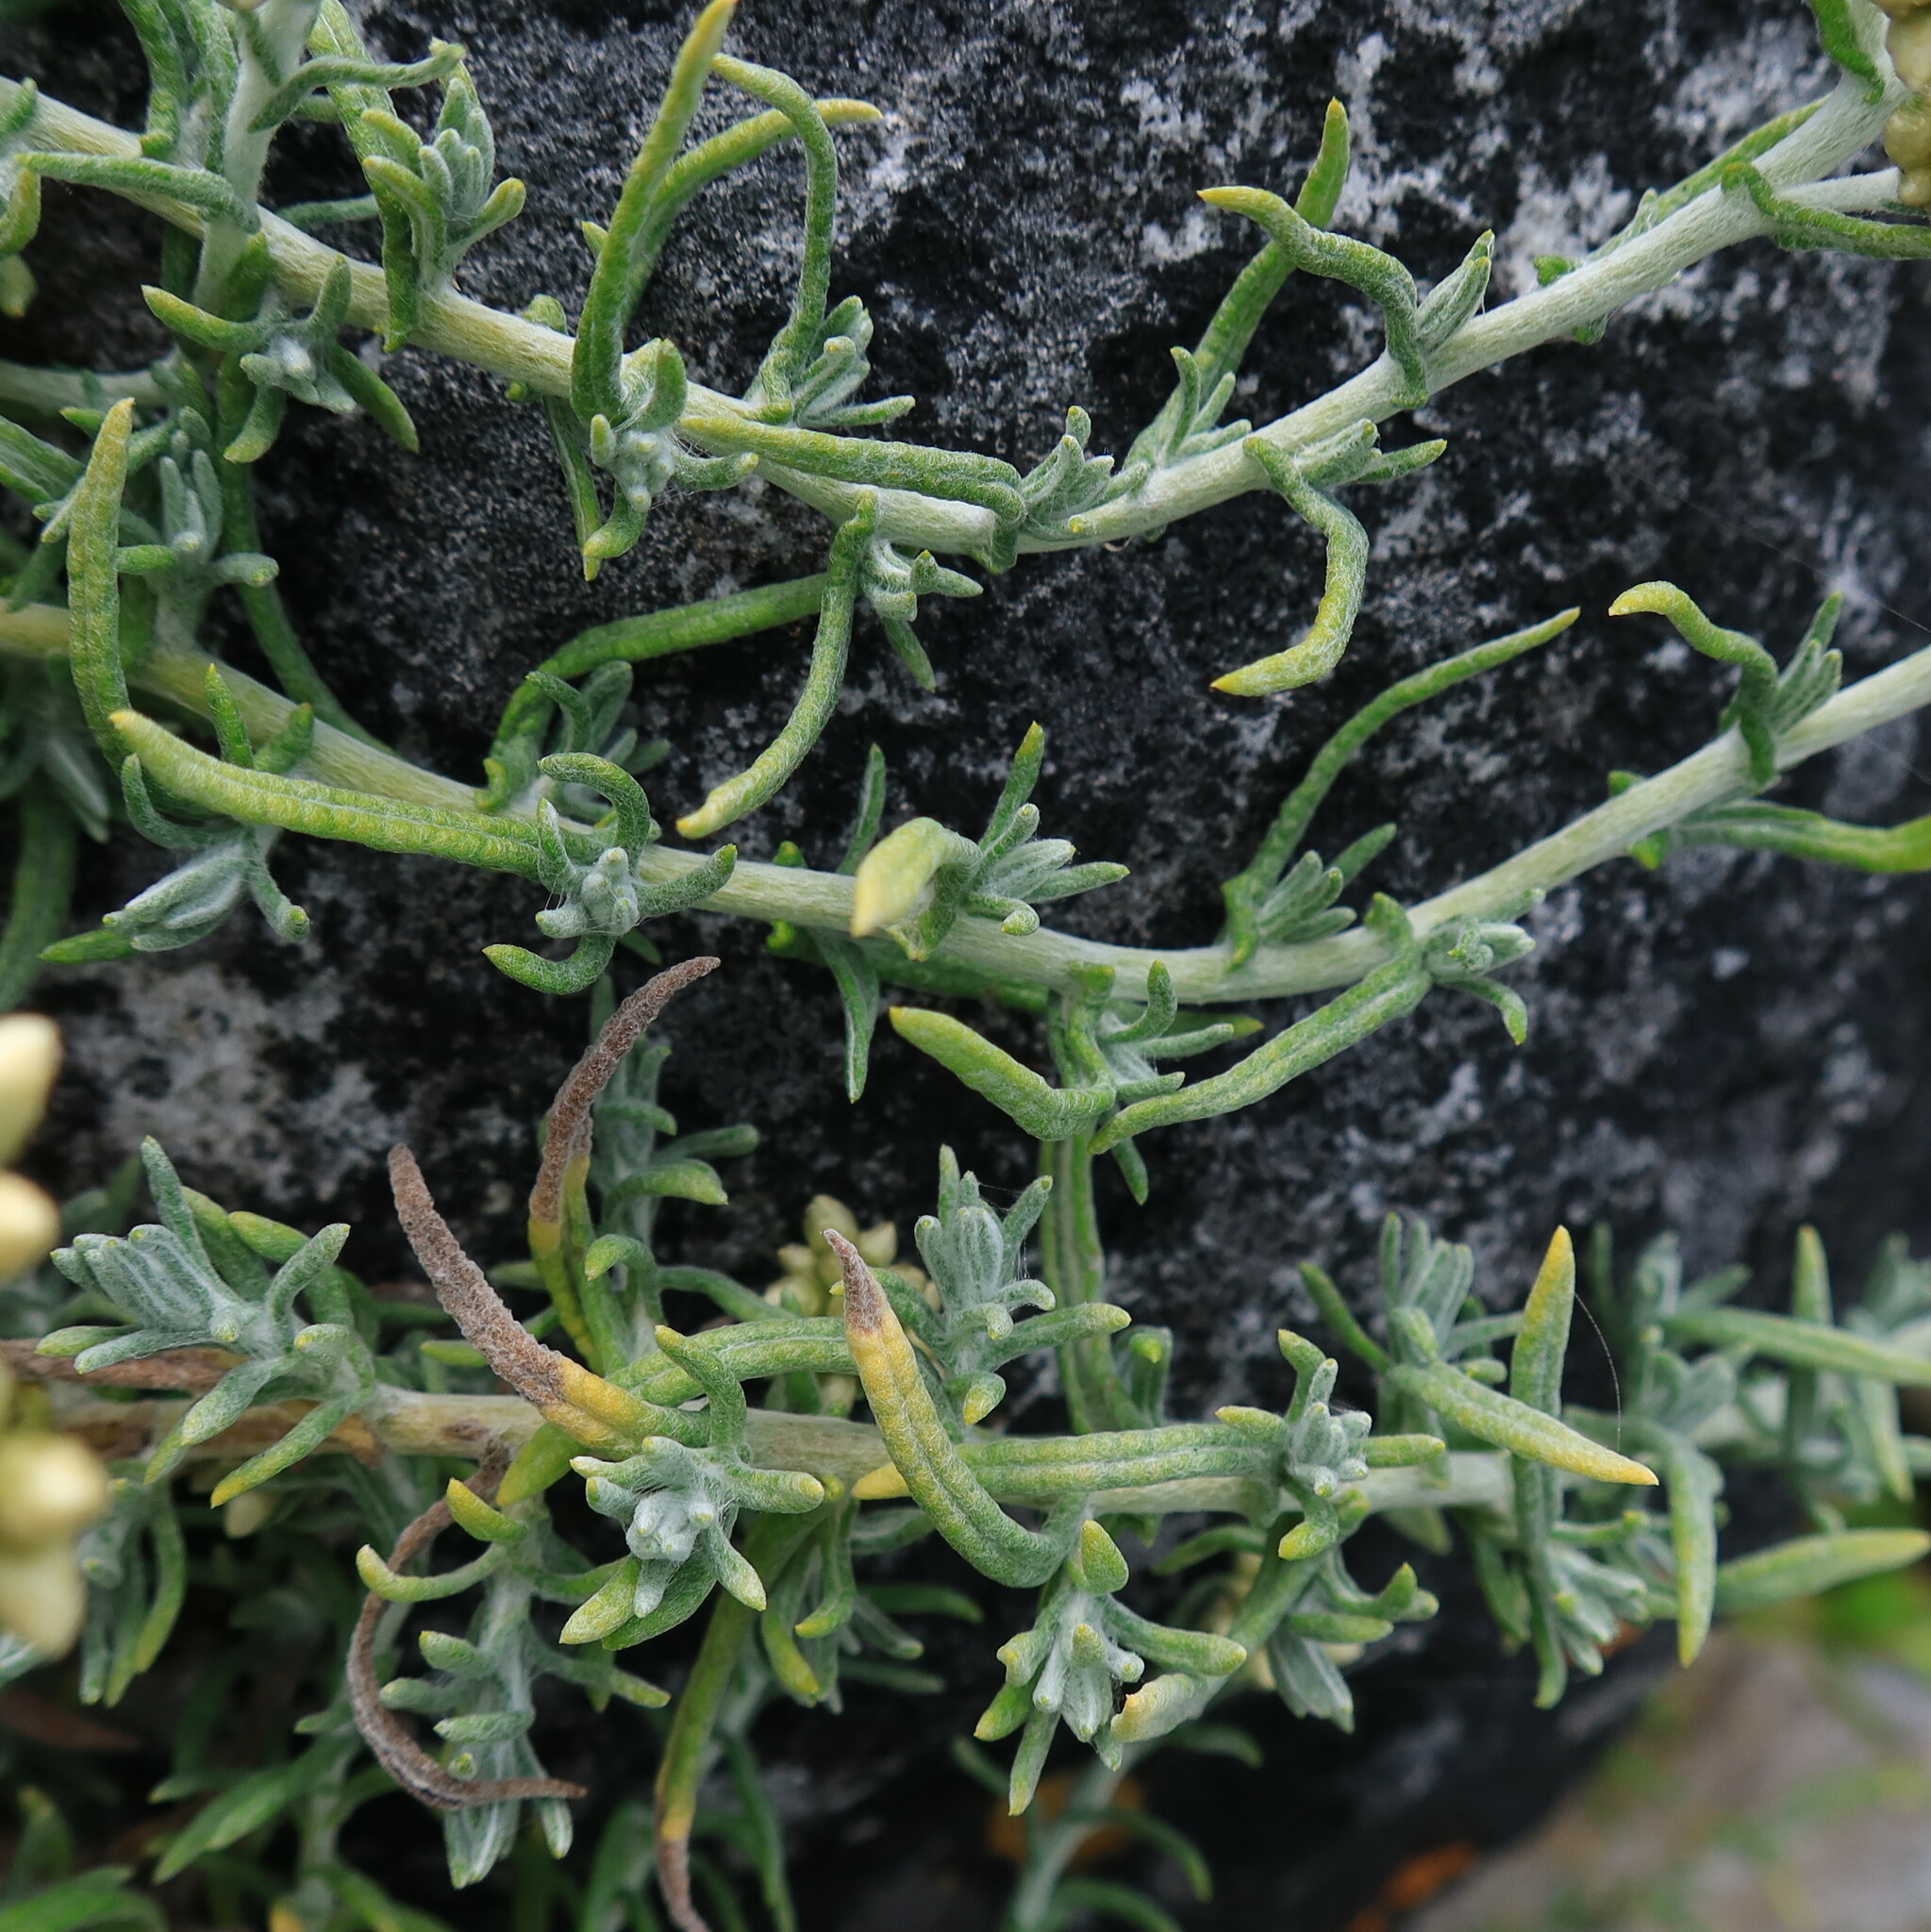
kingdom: Plantae
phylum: Tracheophyta
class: Magnoliopsida
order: Asterales
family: Asteraceae
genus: Helichrysum
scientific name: Helichrysum revolutum
